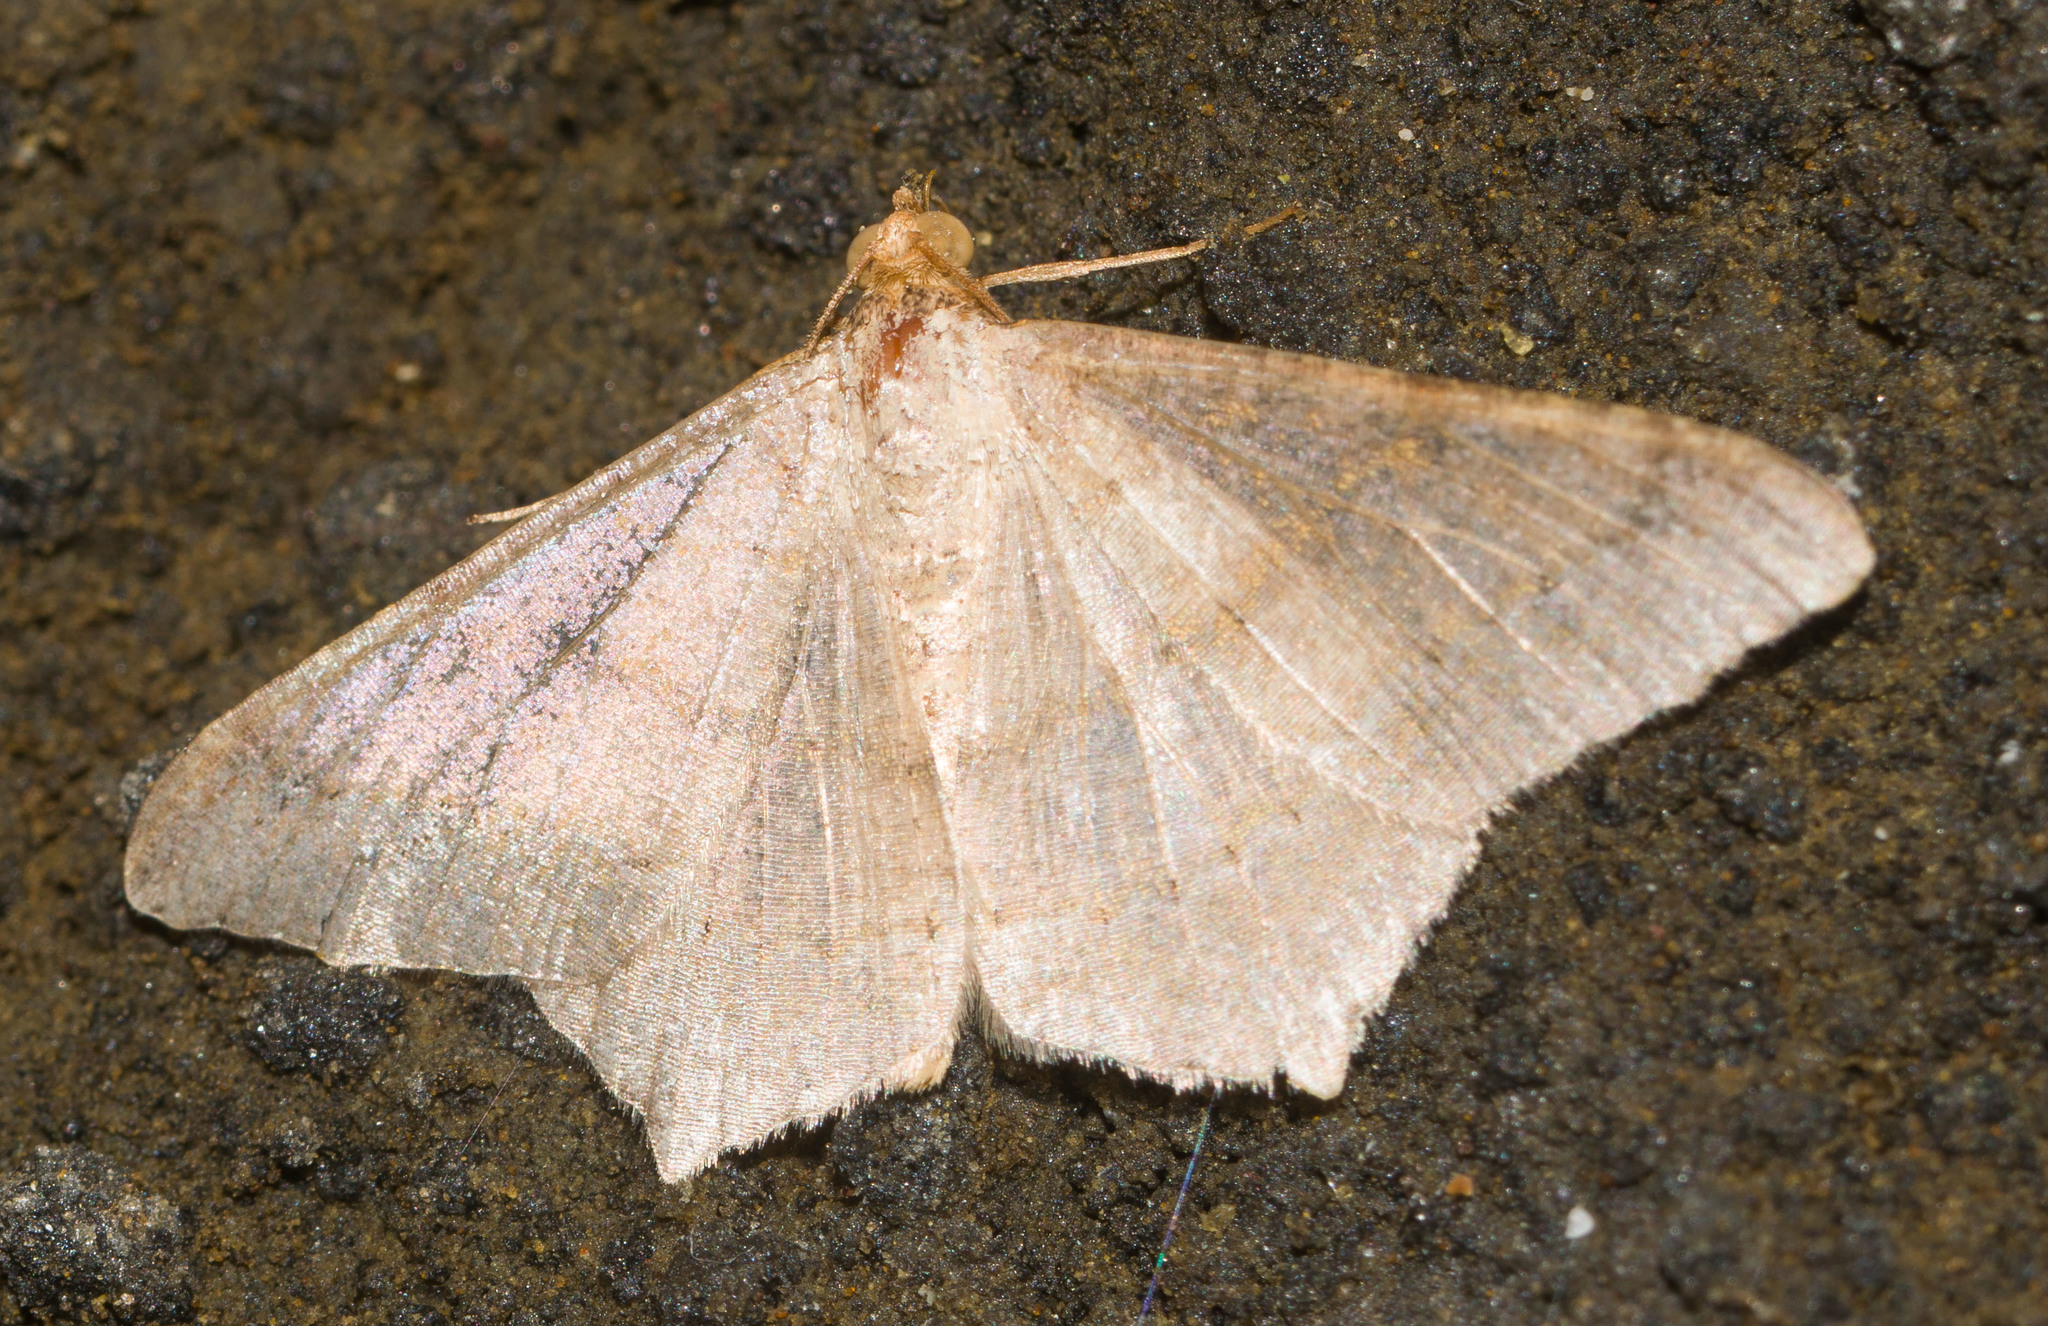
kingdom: Animalia
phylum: Arthropoda
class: Insecta
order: Lepidoptera
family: Geometridae
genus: Macaria
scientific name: Macaria abydata
